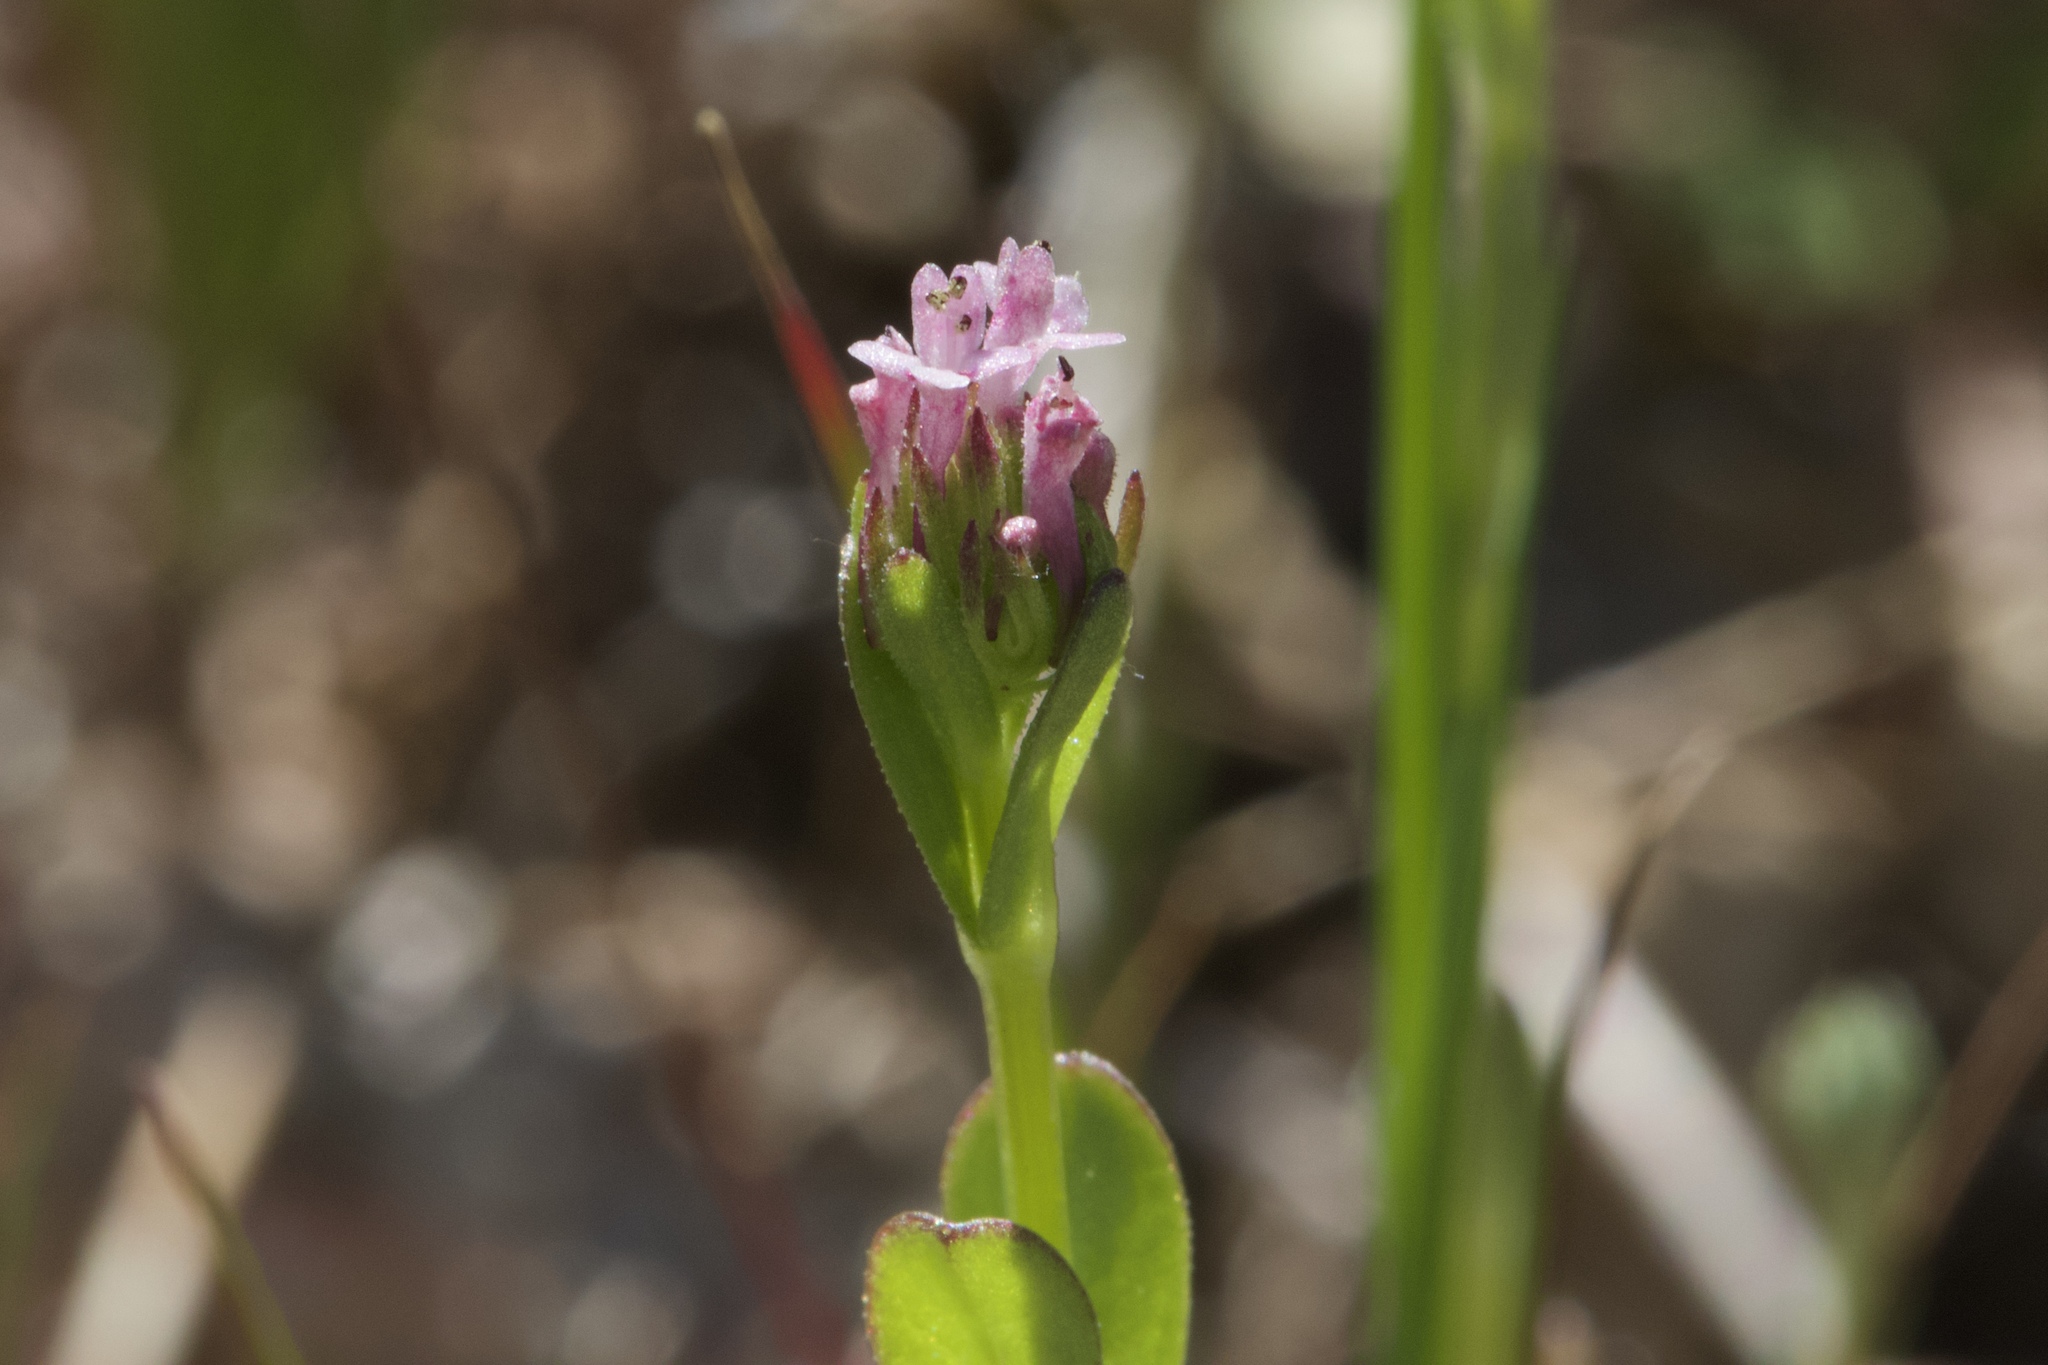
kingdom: Plantae
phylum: Tracheophyta
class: Magnoliopsida
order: Dipsacales
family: Caprifoliaceae
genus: Plectritis
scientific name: Plectritis ciliosa
